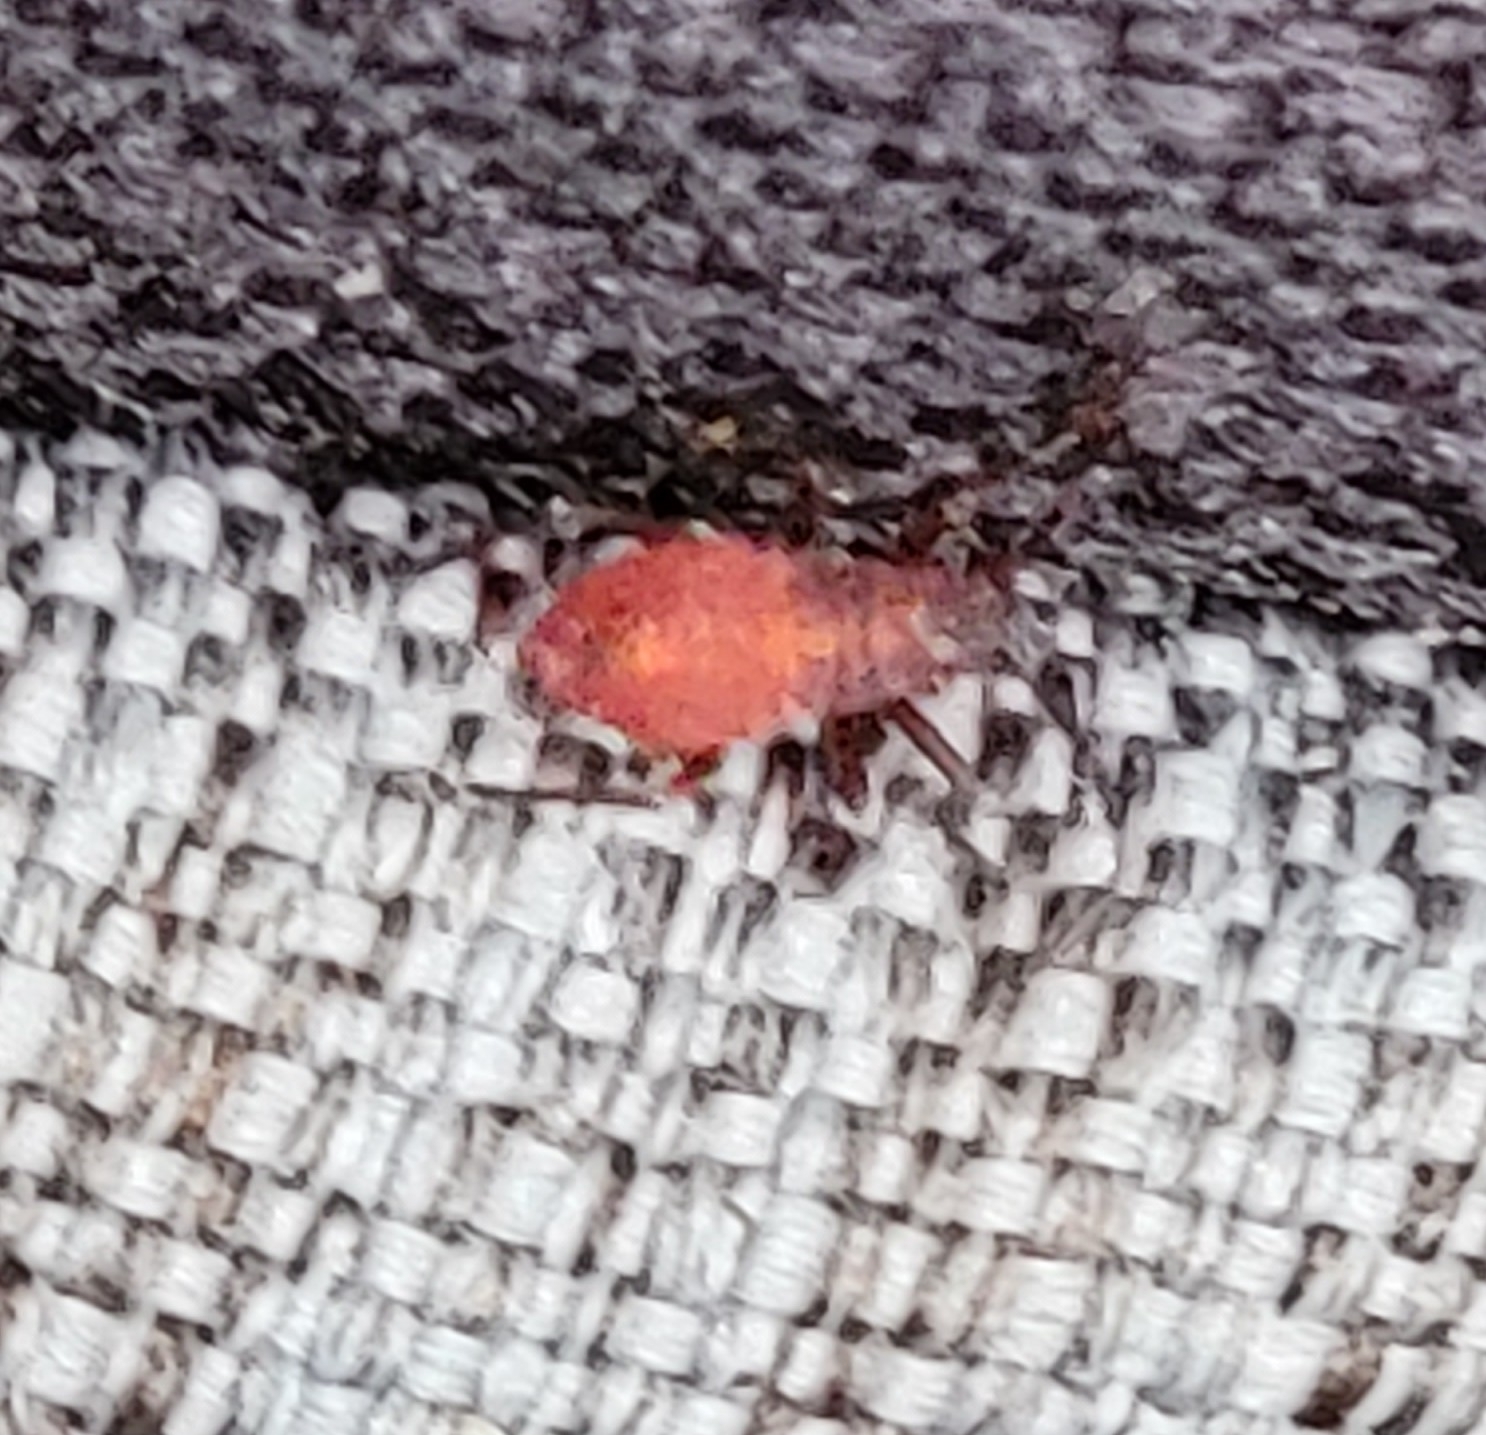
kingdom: Animalia
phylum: Arthropoda
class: Insecta
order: Hemiptera
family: Rhopalidae
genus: Boisea
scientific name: Boisea trivittata
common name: Boxelder bug
